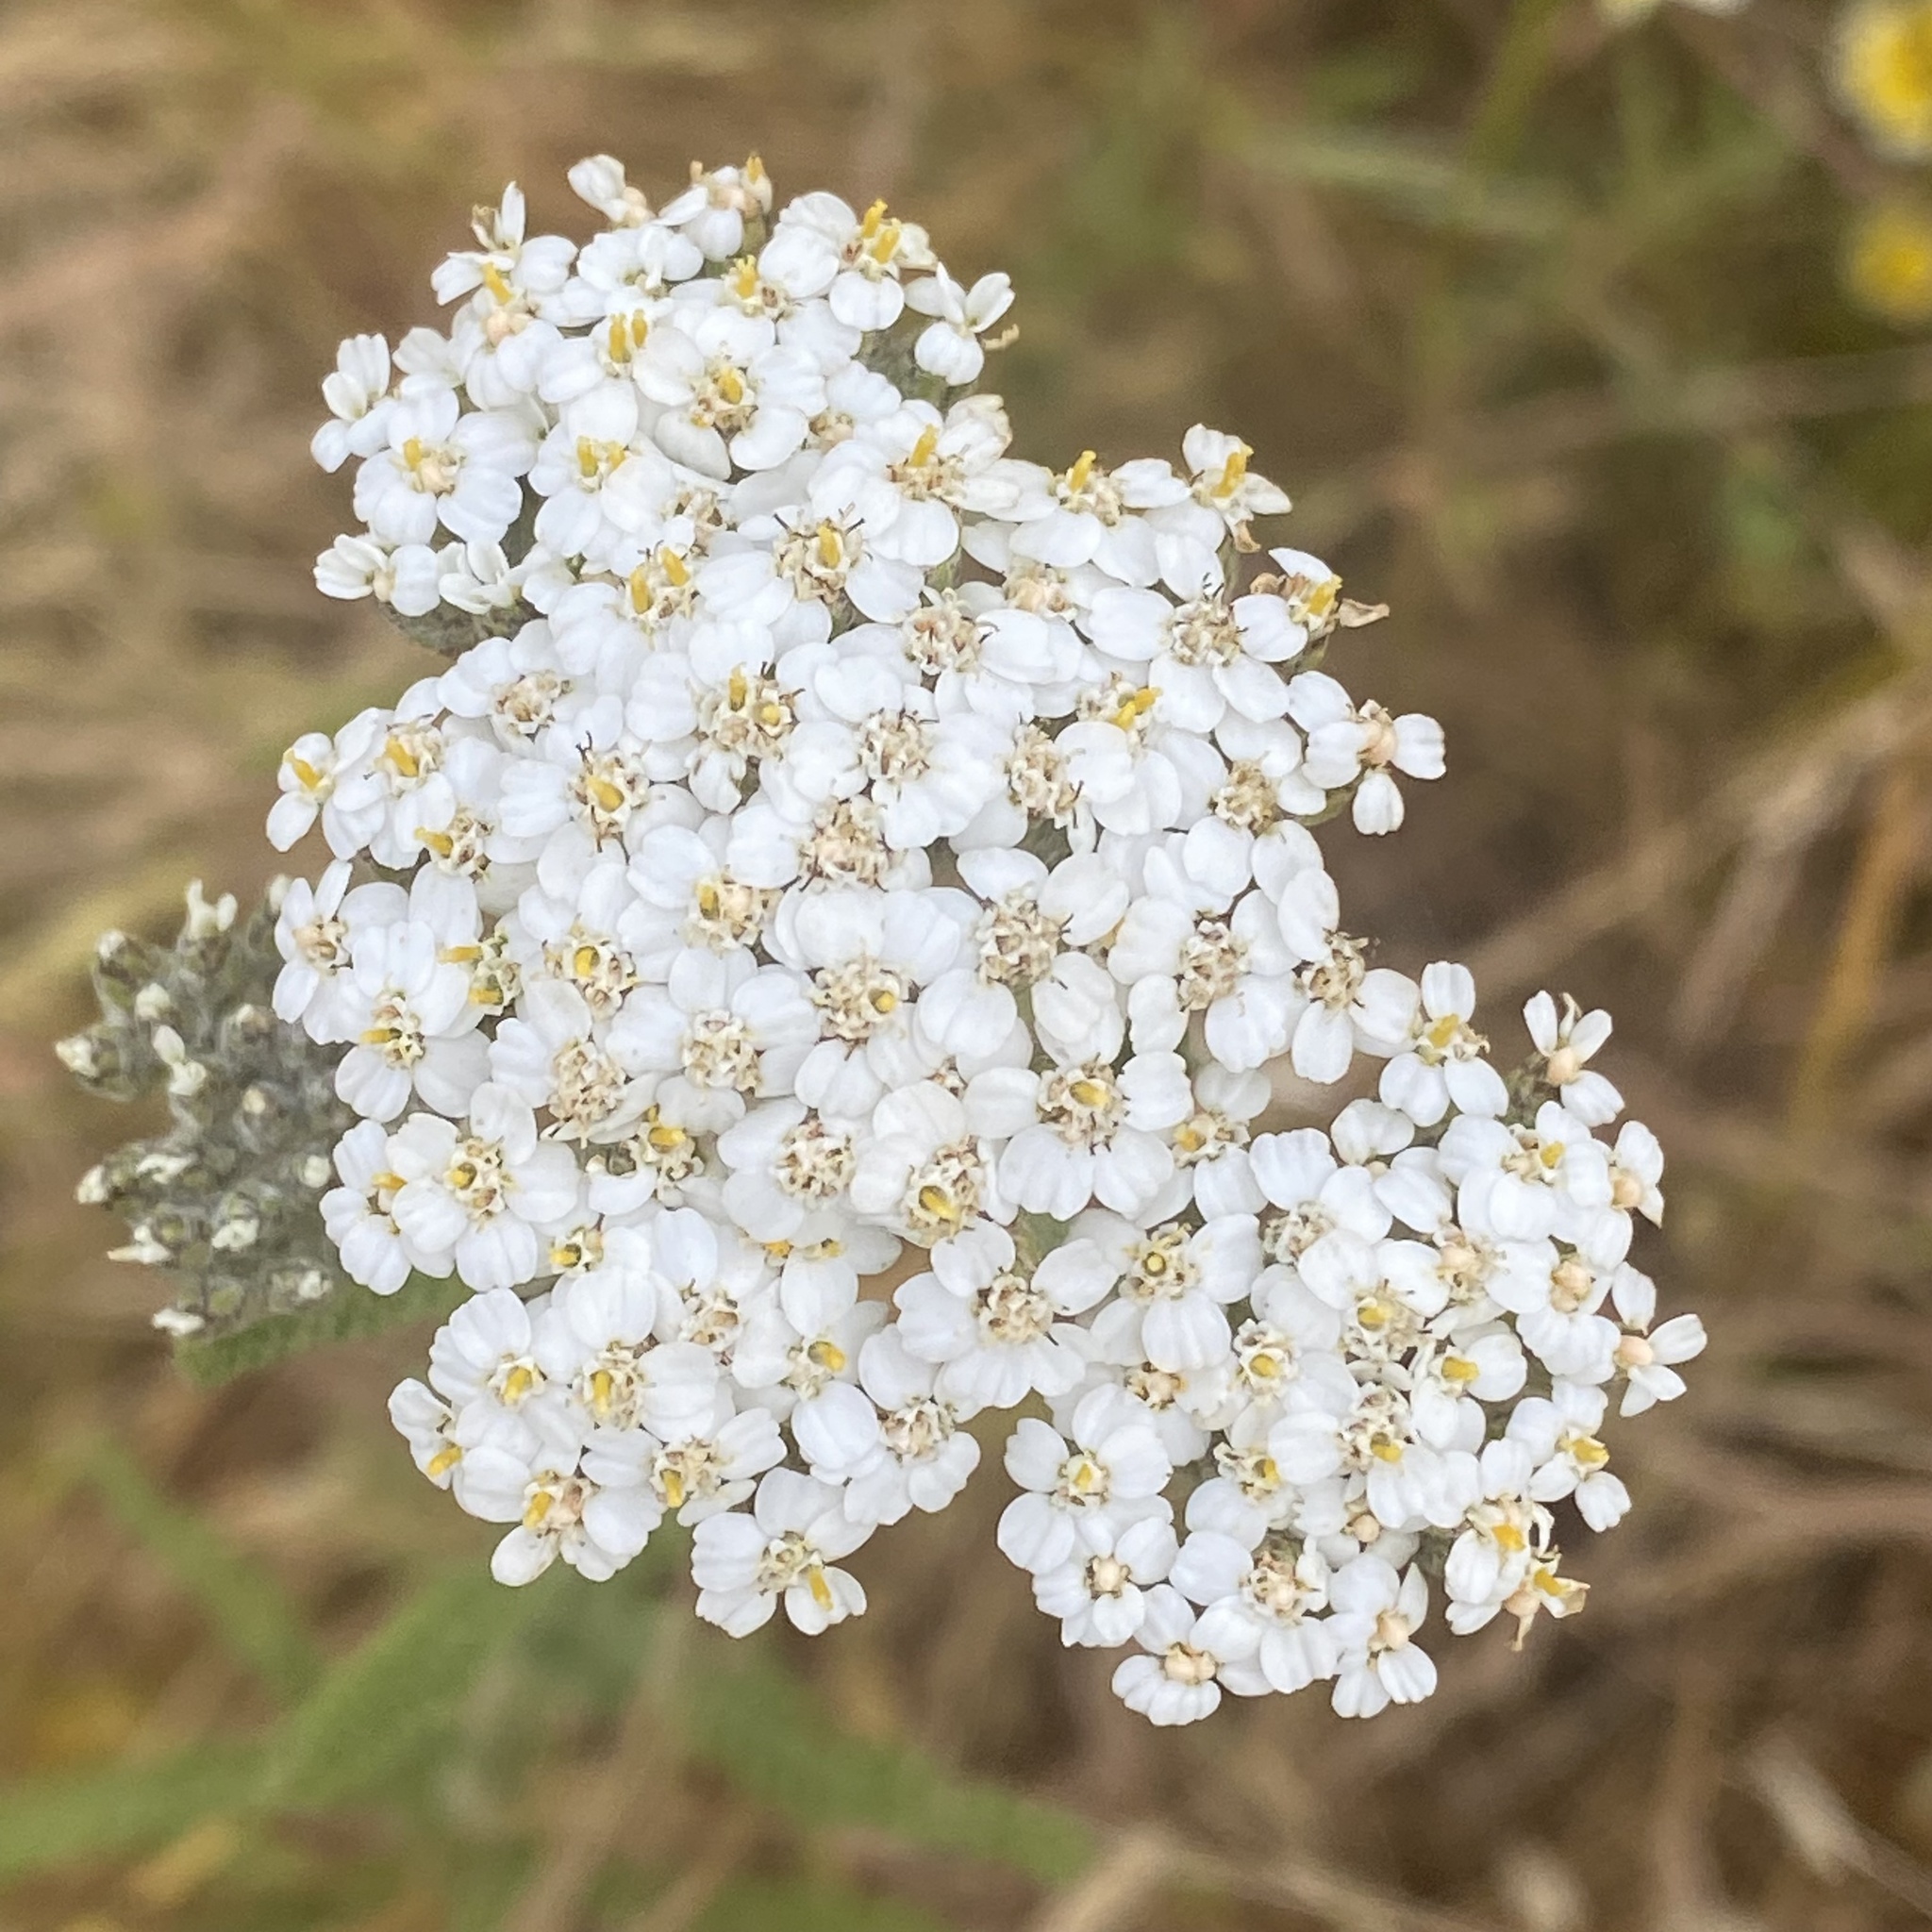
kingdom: Plantae
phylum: Tracheophyta
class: Magnoliopsida
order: Asterales
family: Asteraceae
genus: Achillea
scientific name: Achillea millefolium
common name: Yarrow
